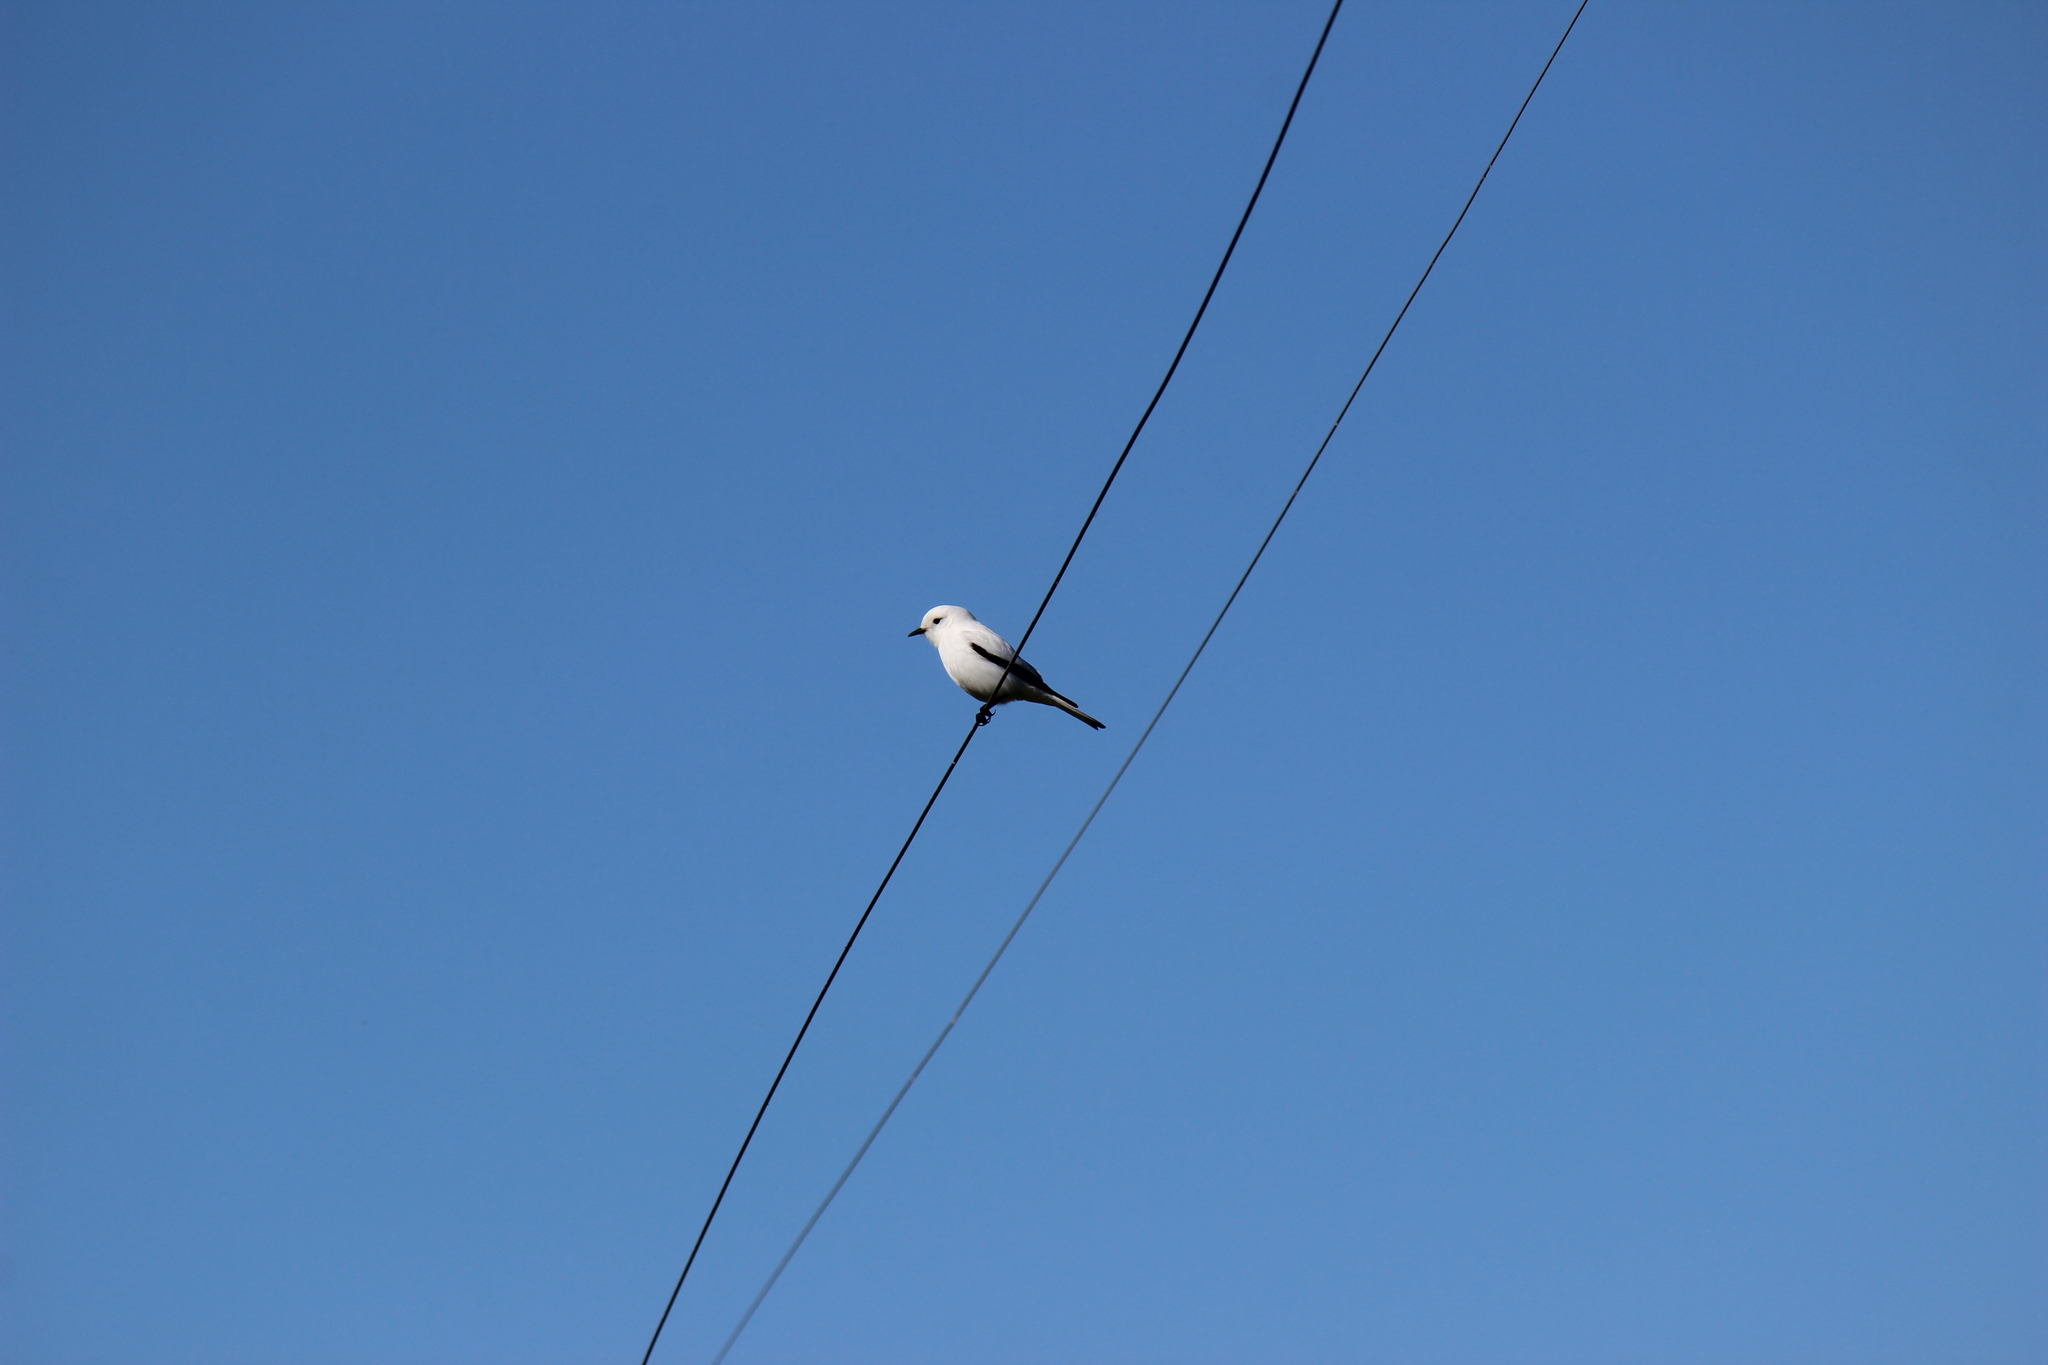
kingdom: Animalia
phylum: Chordata
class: Aves
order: Passeriformes
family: Tyrannidae
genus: Xolmis
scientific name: Xolmis irupero
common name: White monjita
